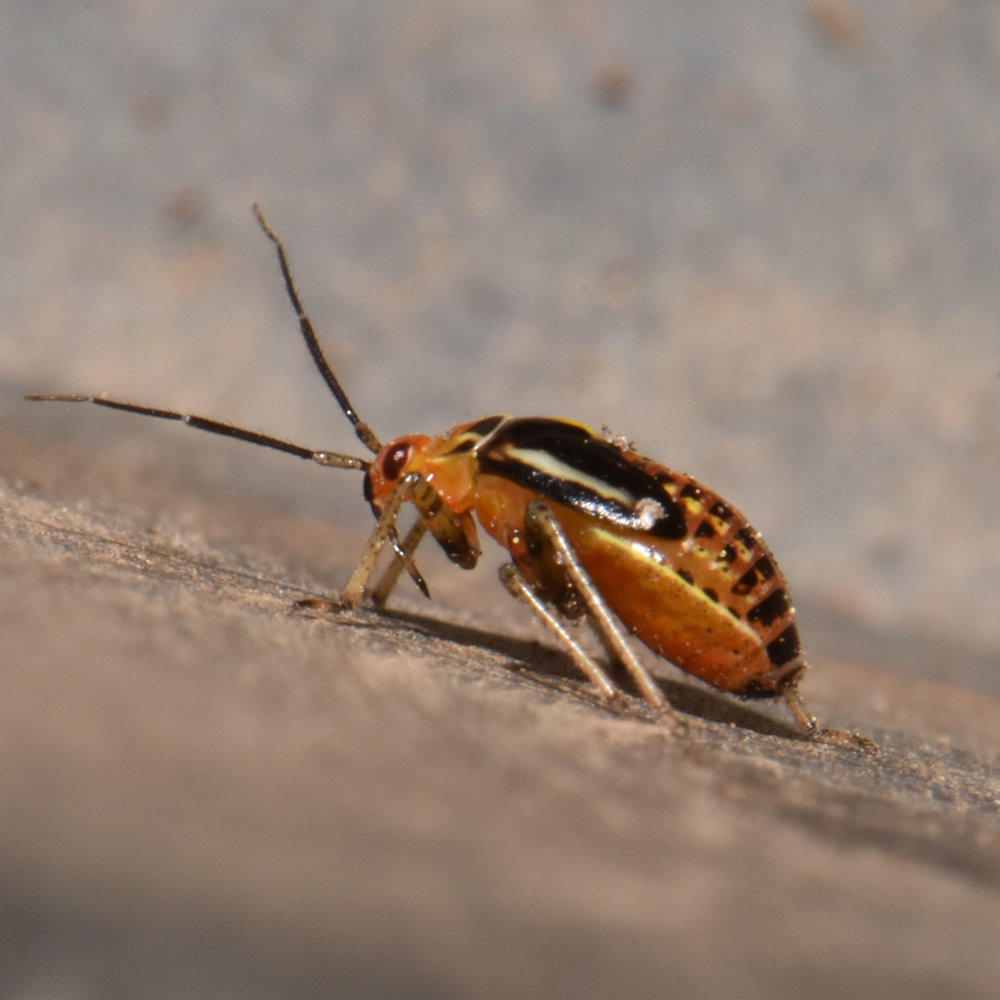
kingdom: Animalia
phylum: Arthropoda
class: Insecta
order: Hemiptera
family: Miridae
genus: Poecilocapsus
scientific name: Poecilocapsus lineatus
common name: Four-lined plant bug
